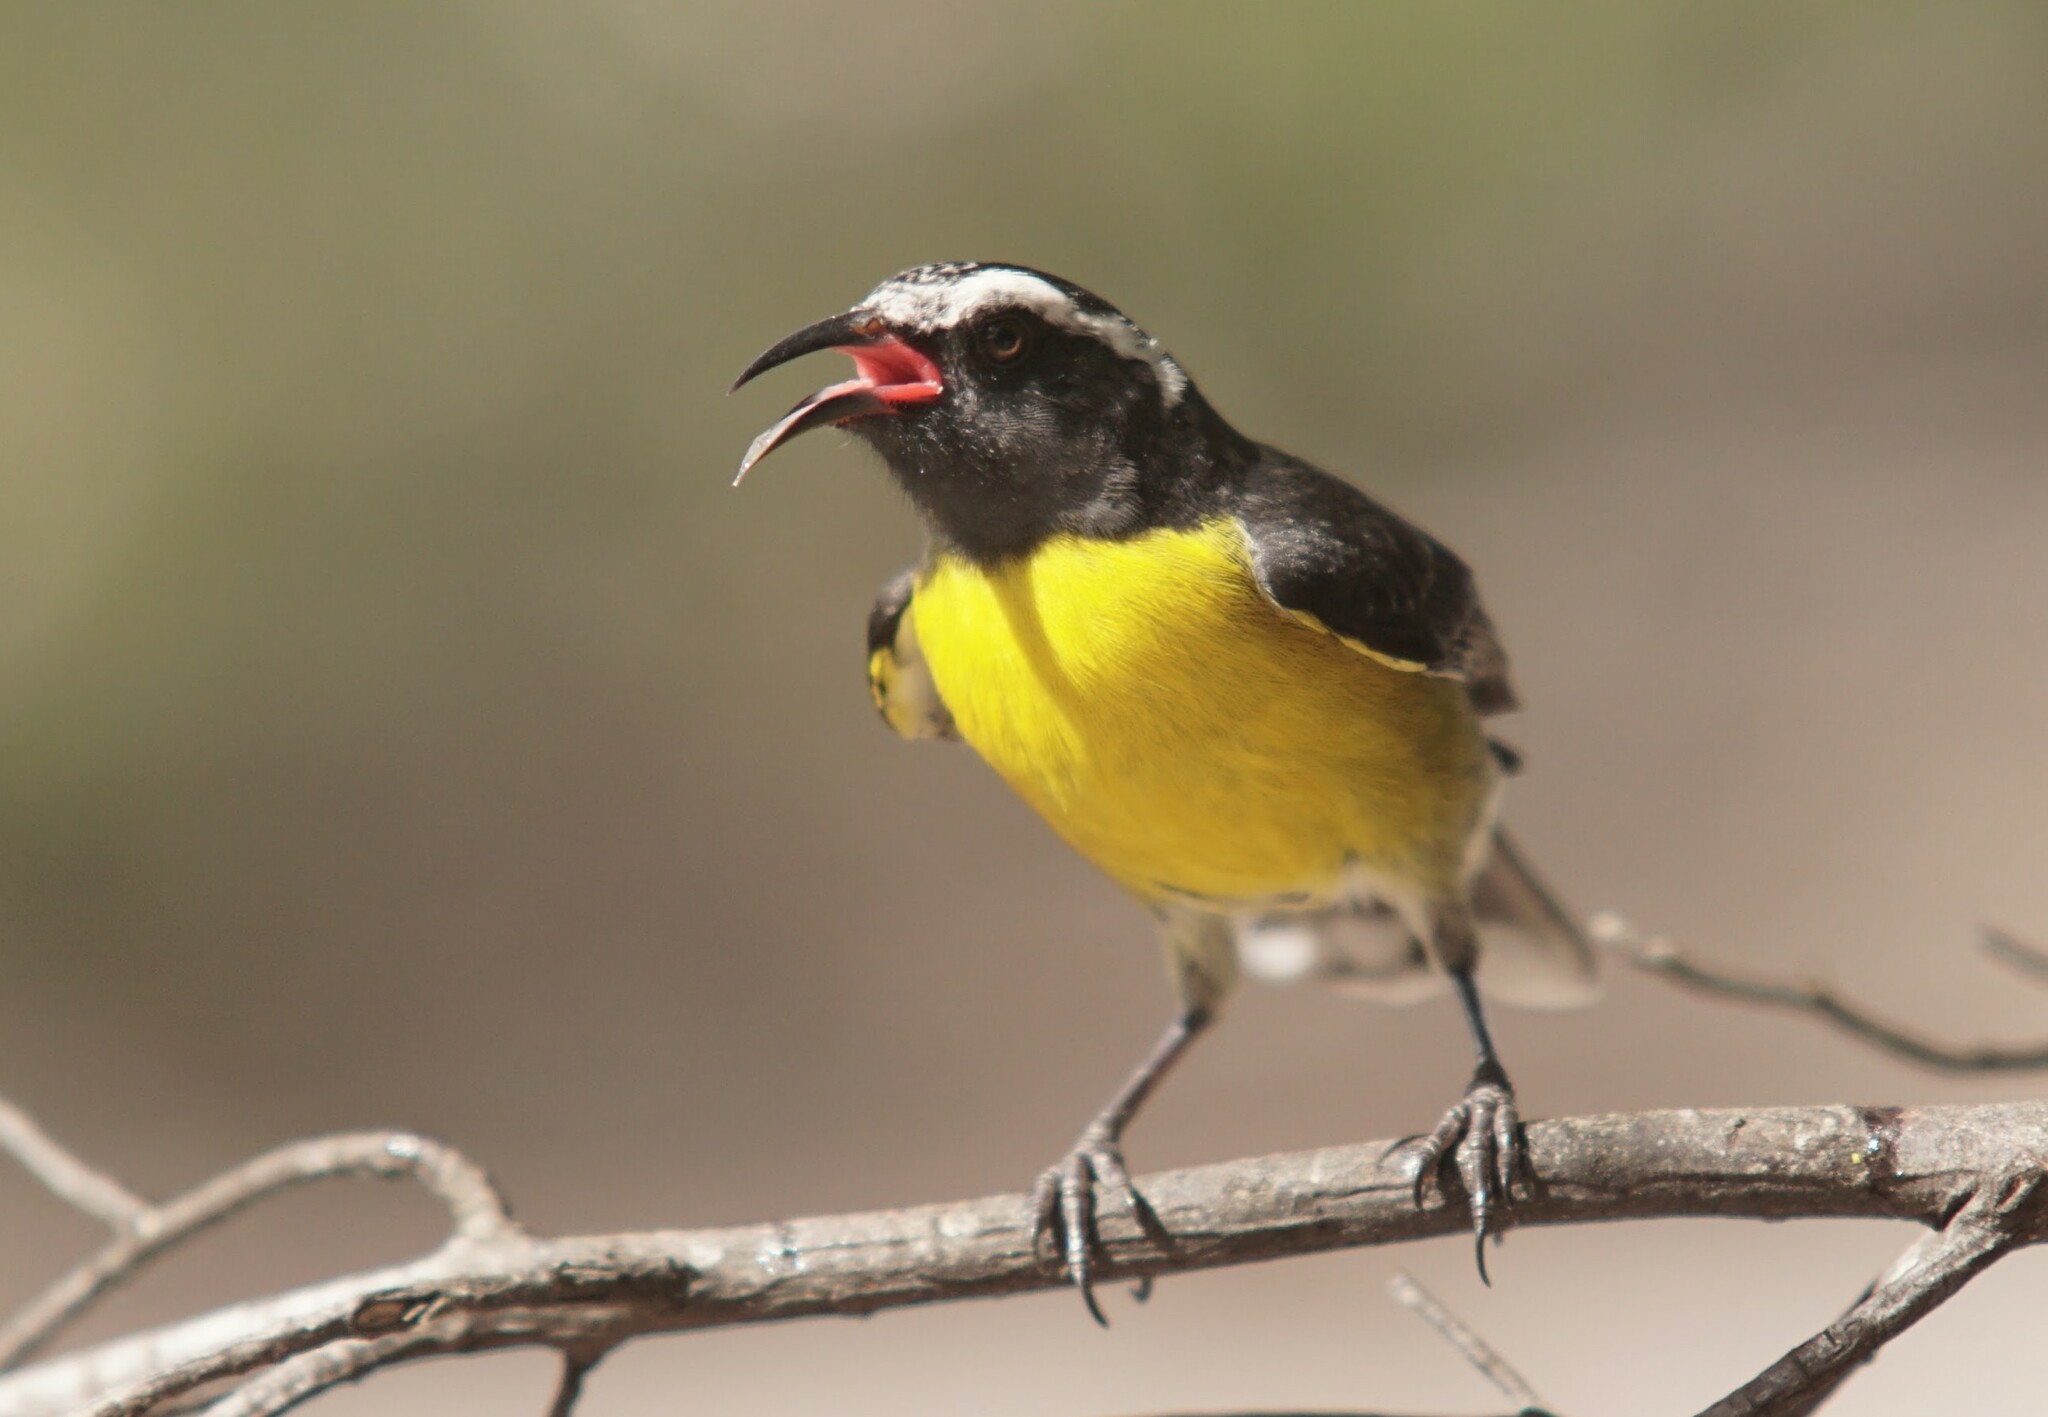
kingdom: Animalia
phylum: Chordata
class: Aves
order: Passeriformes
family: Thraupidae
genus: Coereba
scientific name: Coereba flaveola
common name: Bananaquit
